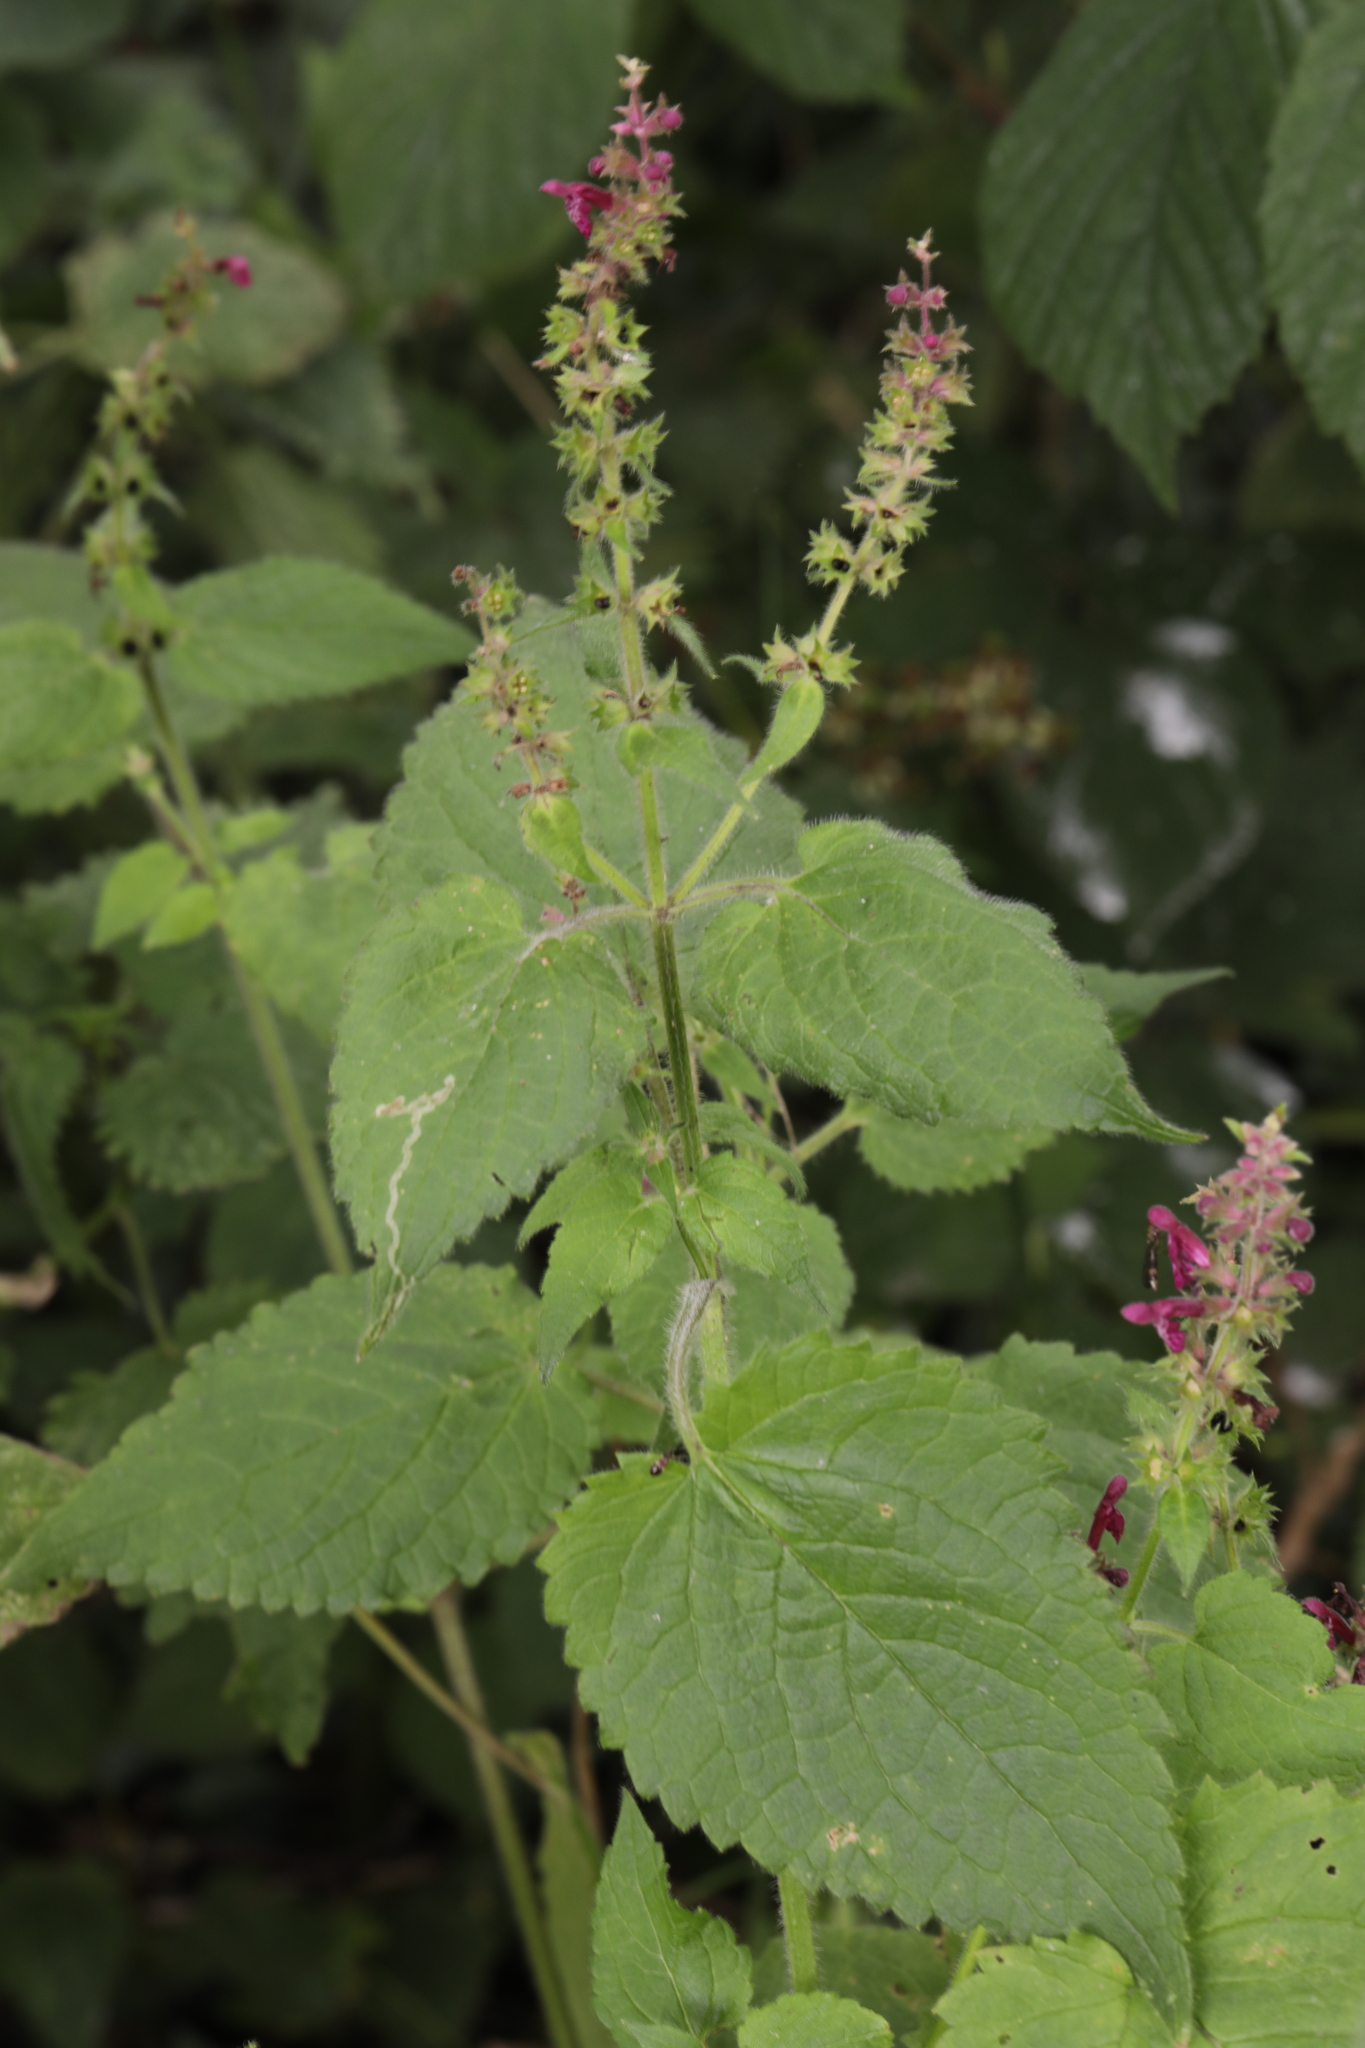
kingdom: Plantae
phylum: Tracheophyta
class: Magnoliopsida
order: Lamiales
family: Lamiaceae
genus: Stachys
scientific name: Stachys sylvatica
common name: Hedge woundwort
